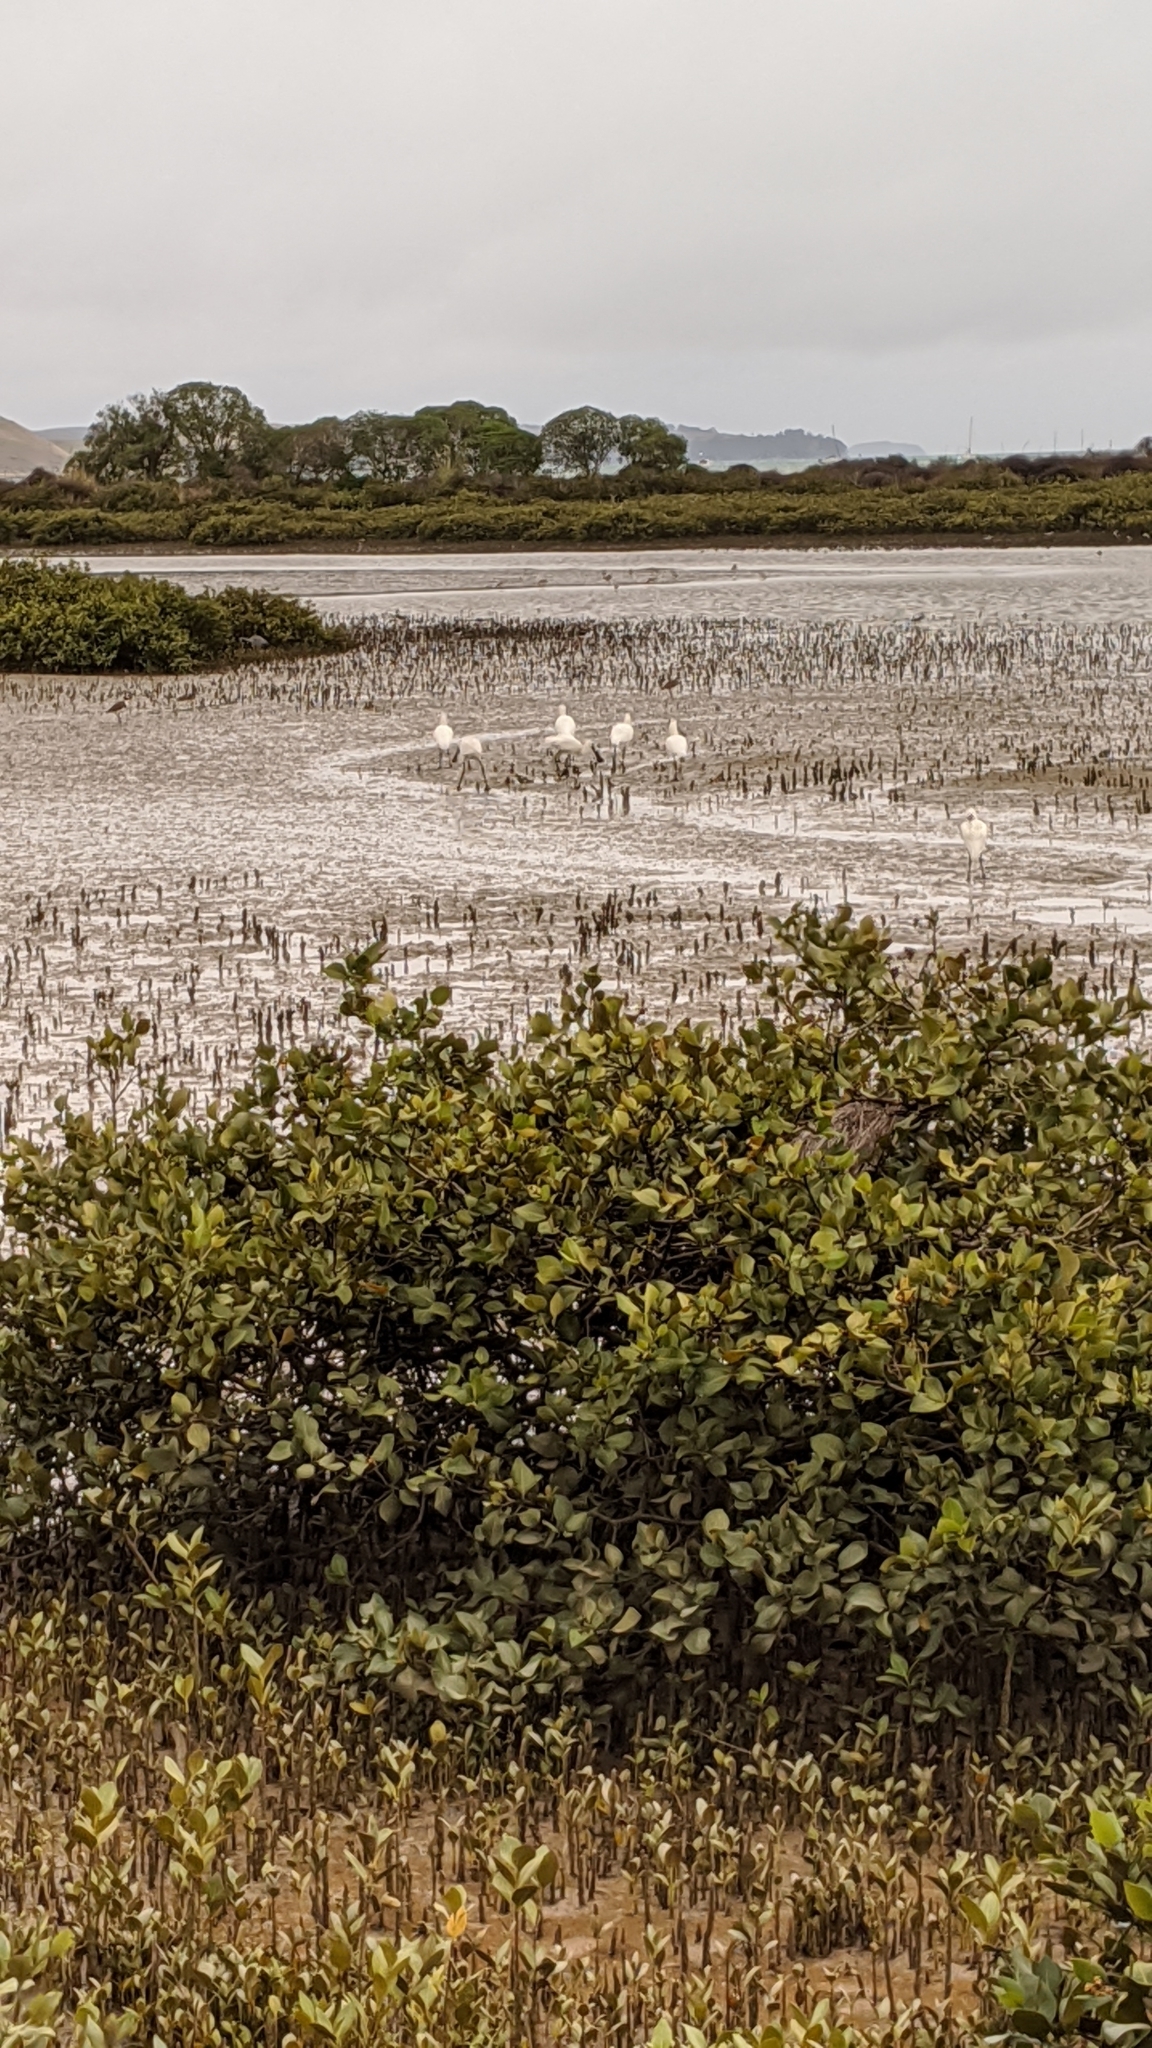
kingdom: Animalia
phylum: Chordata
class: Aves
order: Pelecaniformes
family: Threskiornithidae
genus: Platalea
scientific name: Platalea regia
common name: Royal spoonbill
